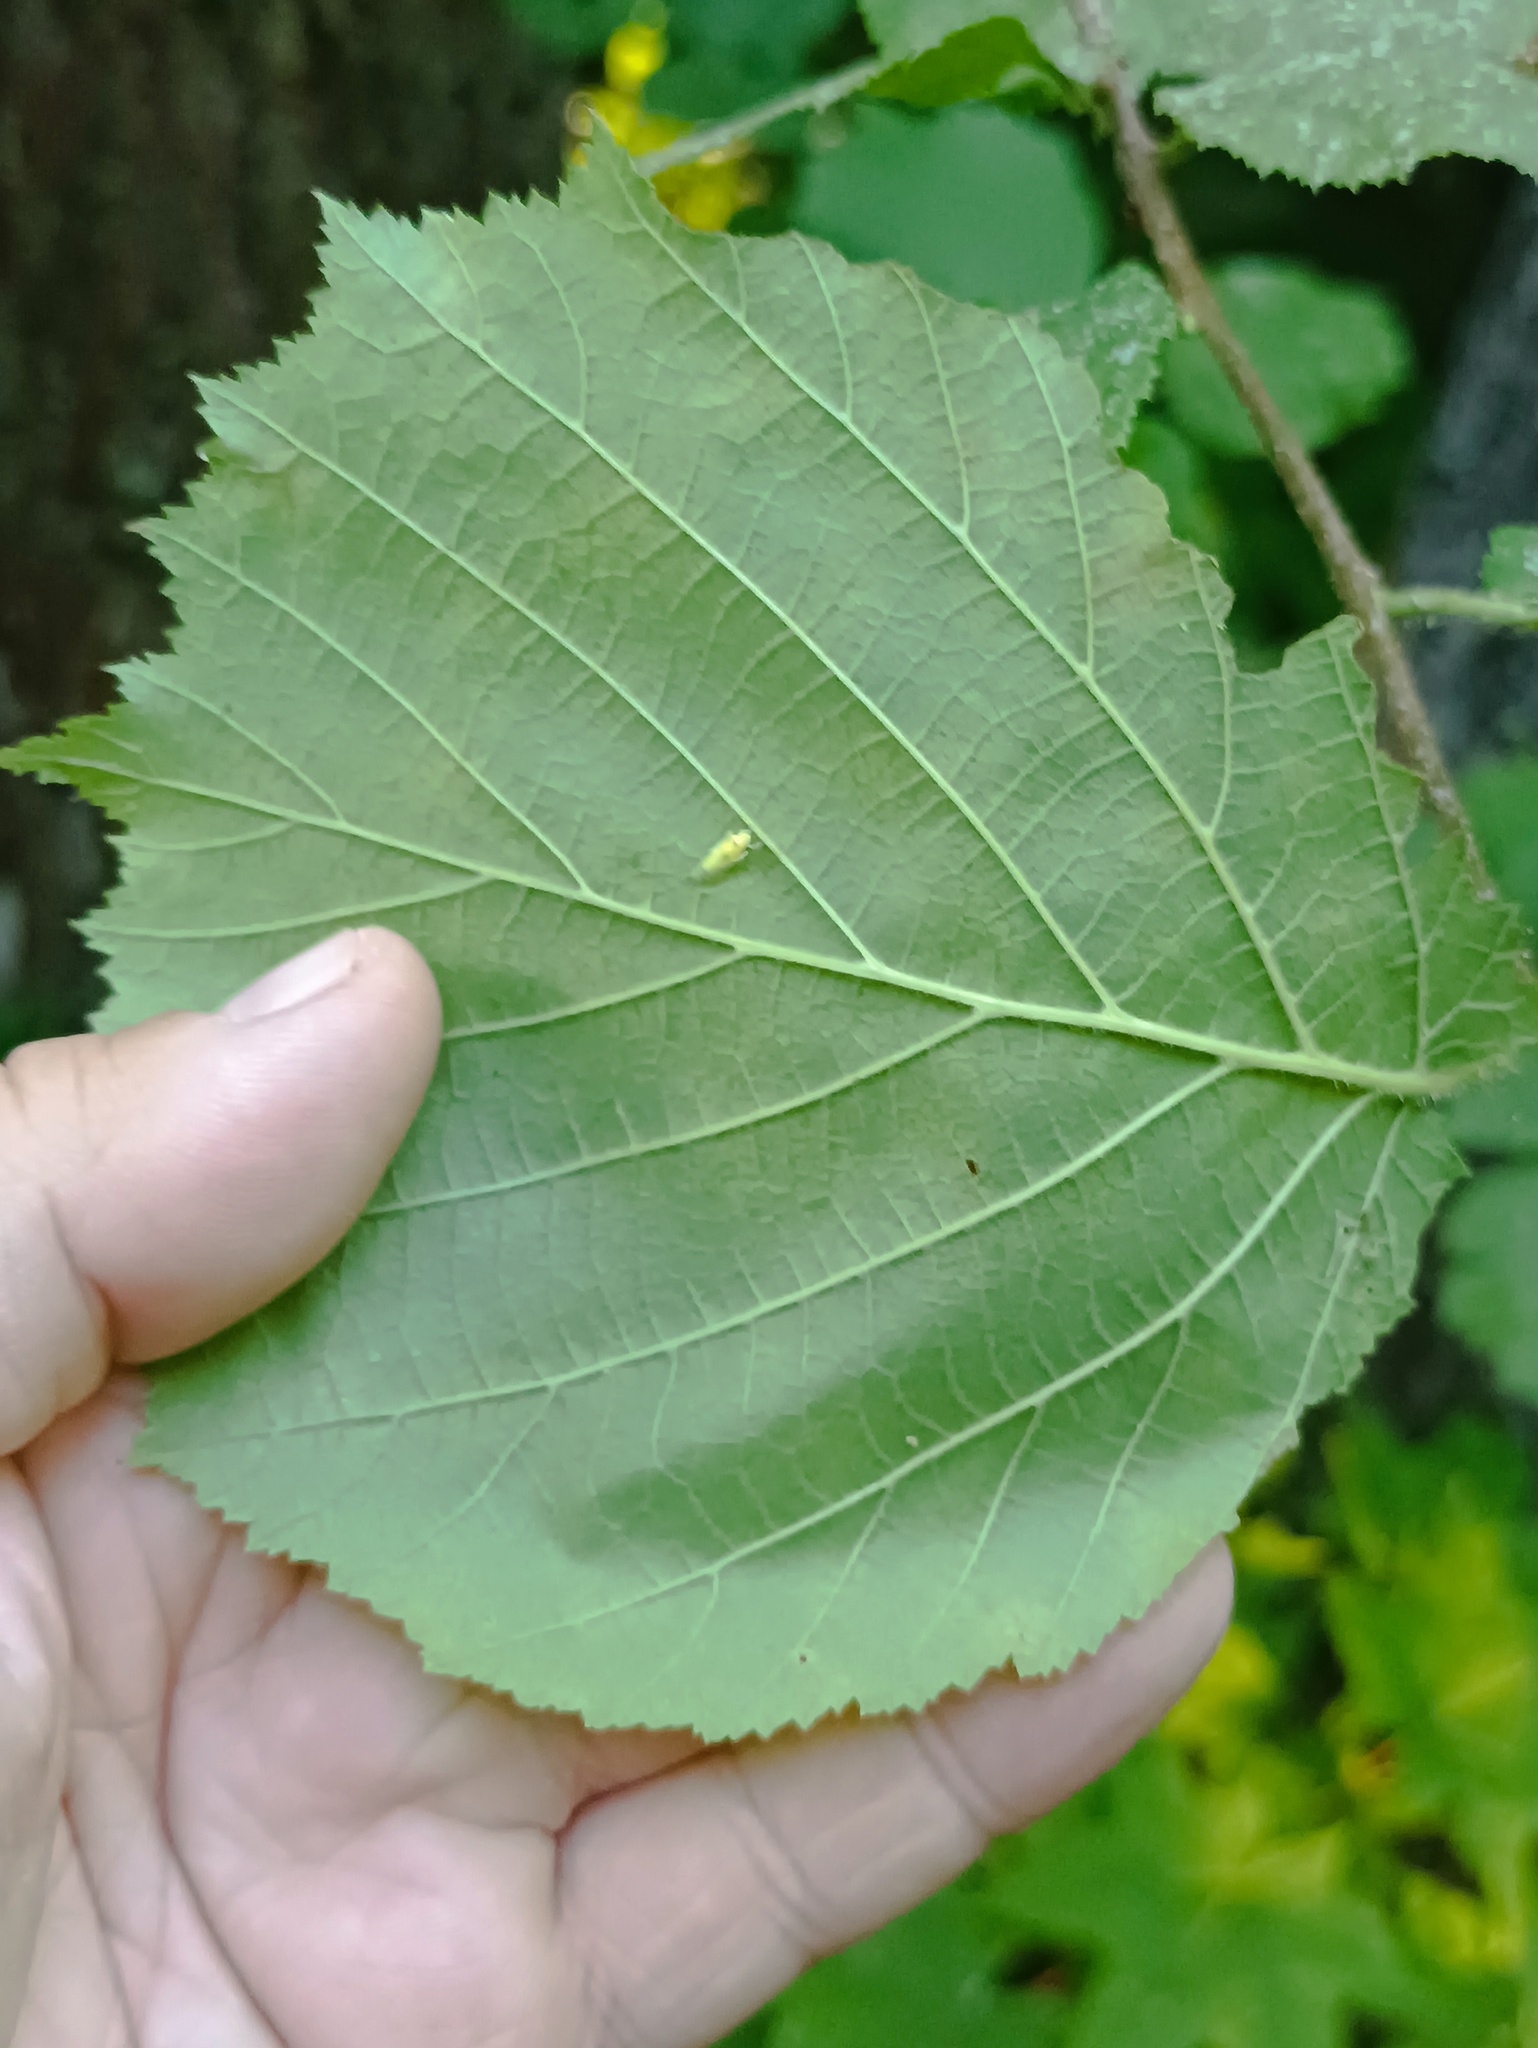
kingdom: Plantae
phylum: Tracheophyta
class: Magnoliopsida
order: Fagales
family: Betulaceae
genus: Corylus
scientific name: Corylus avellana
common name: European hazel
